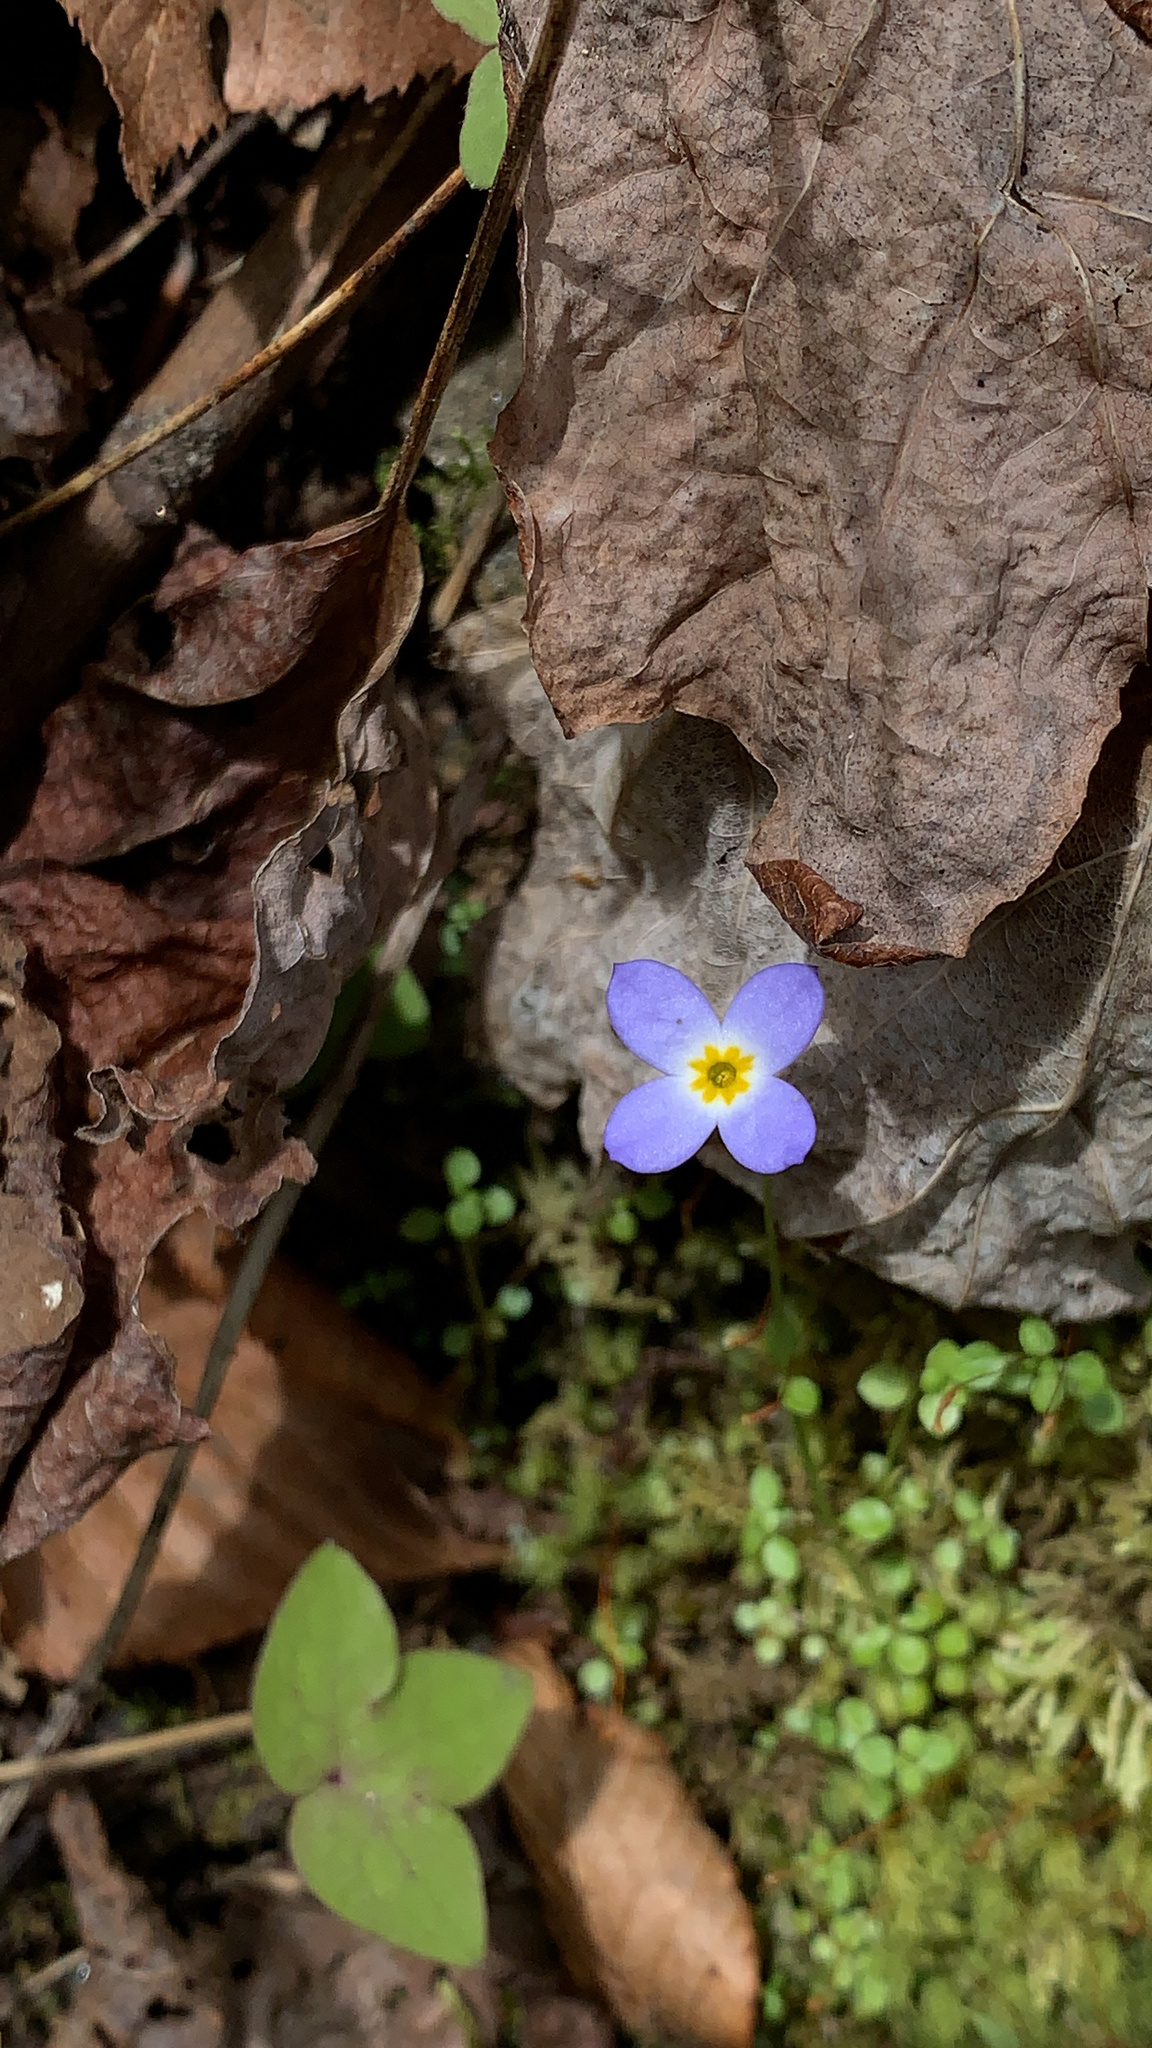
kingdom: Plantae
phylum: Tracheophyta
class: Magnoliopsida
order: Gentianales
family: Rubiaceae
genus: Houstonia
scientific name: Houstonia serpyllifolia
